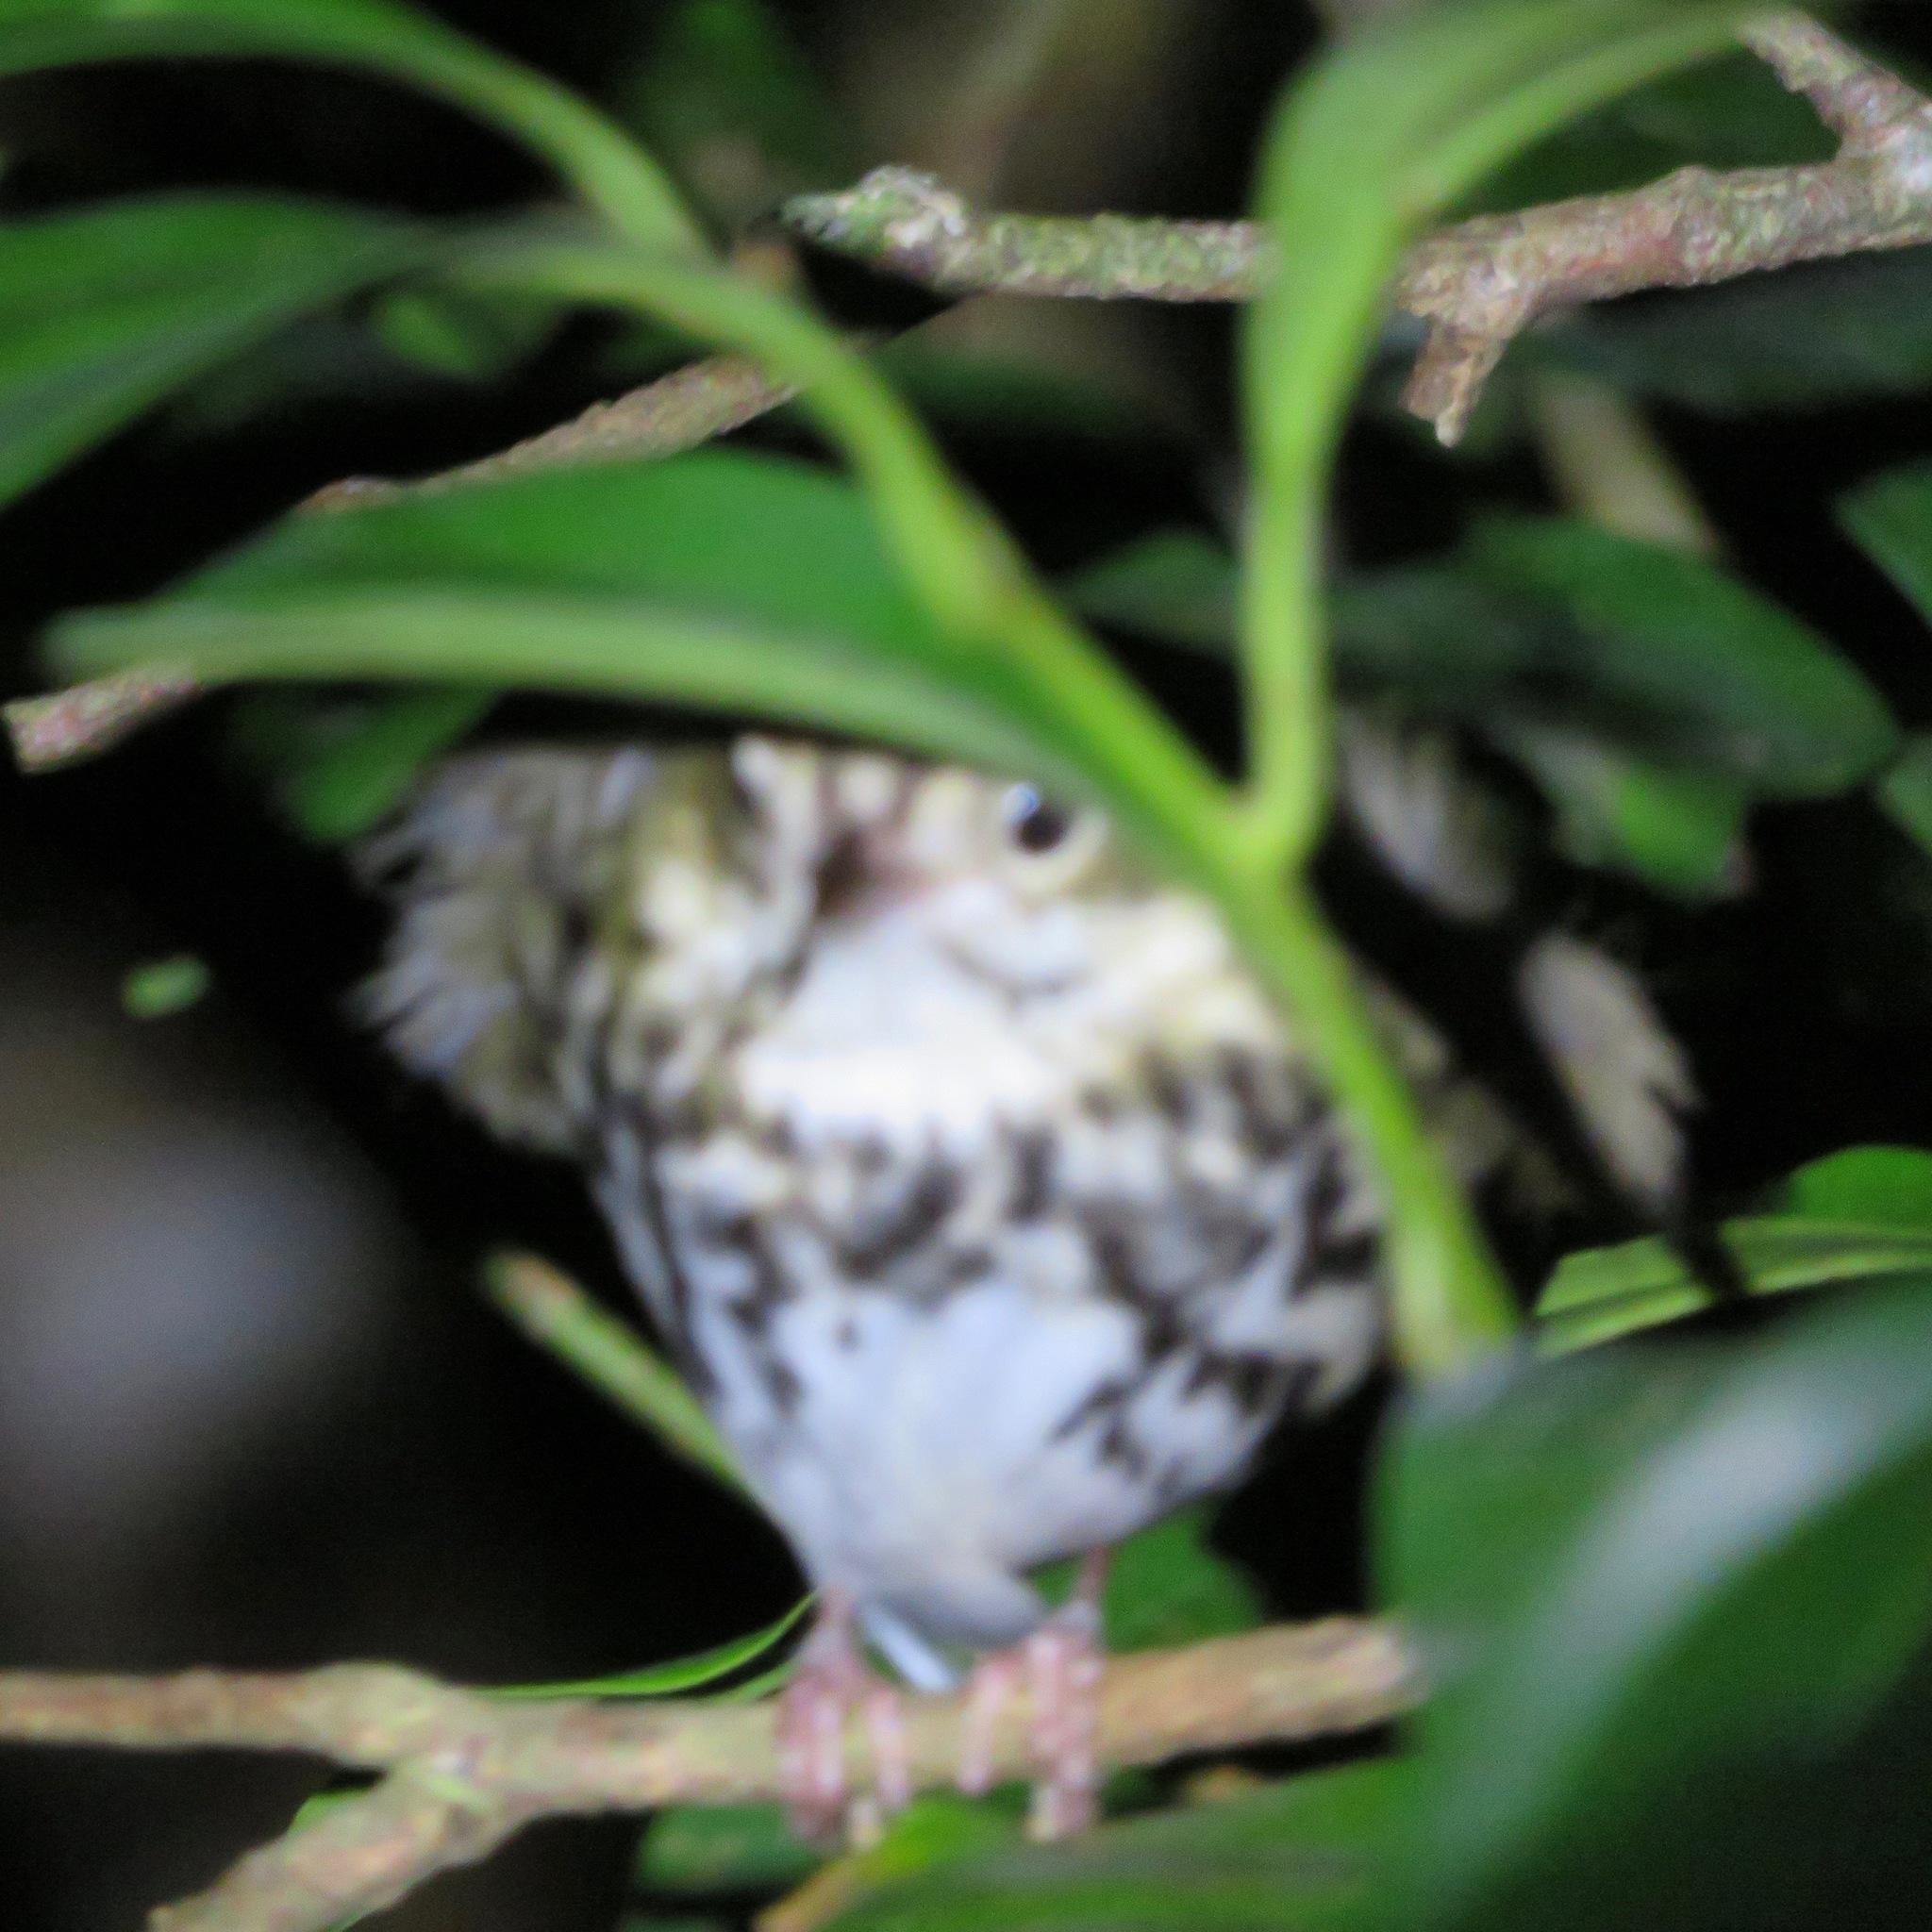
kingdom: Animalia
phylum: Chordata
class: Aves
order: Passeriformes
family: Parulidae
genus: Seiurus
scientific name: Seiurus aurocapilla
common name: Ovenbird
